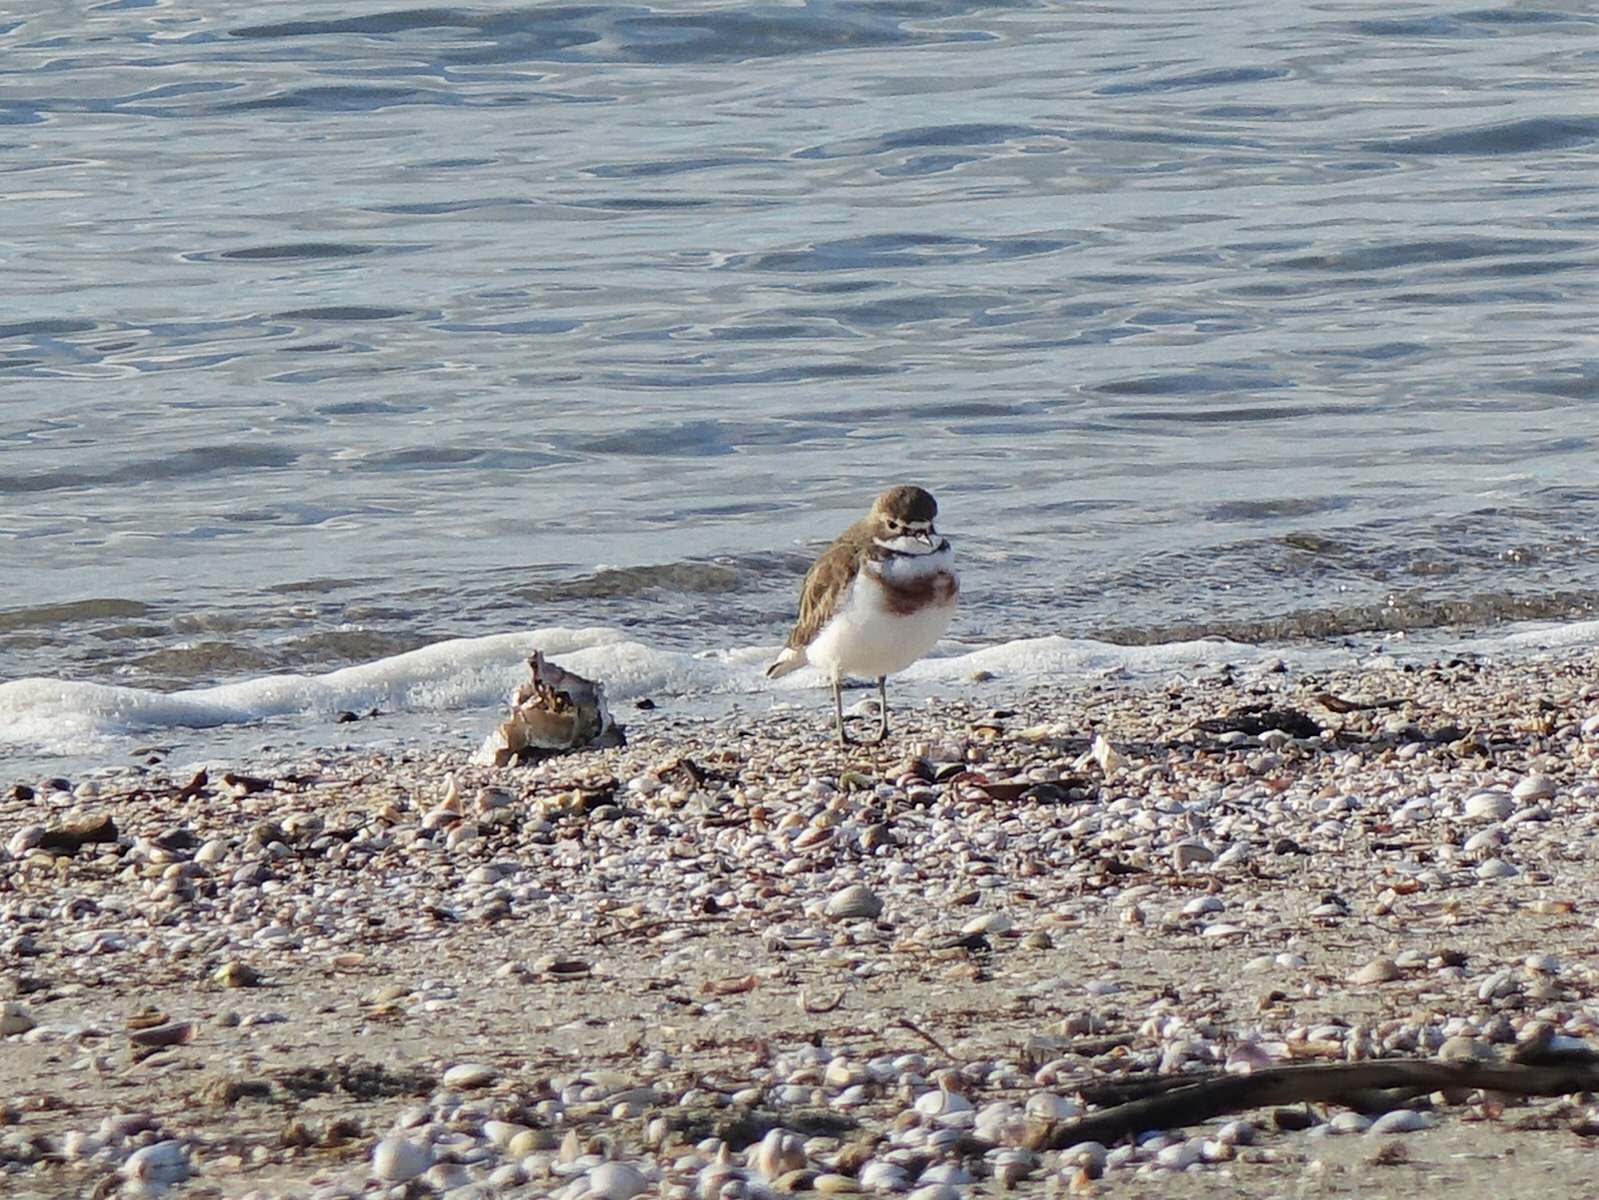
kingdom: Animalia
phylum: Chordata
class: Aves
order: Charadriiformes
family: Charadriidae
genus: Anarhynchus
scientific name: Anarhynchus
